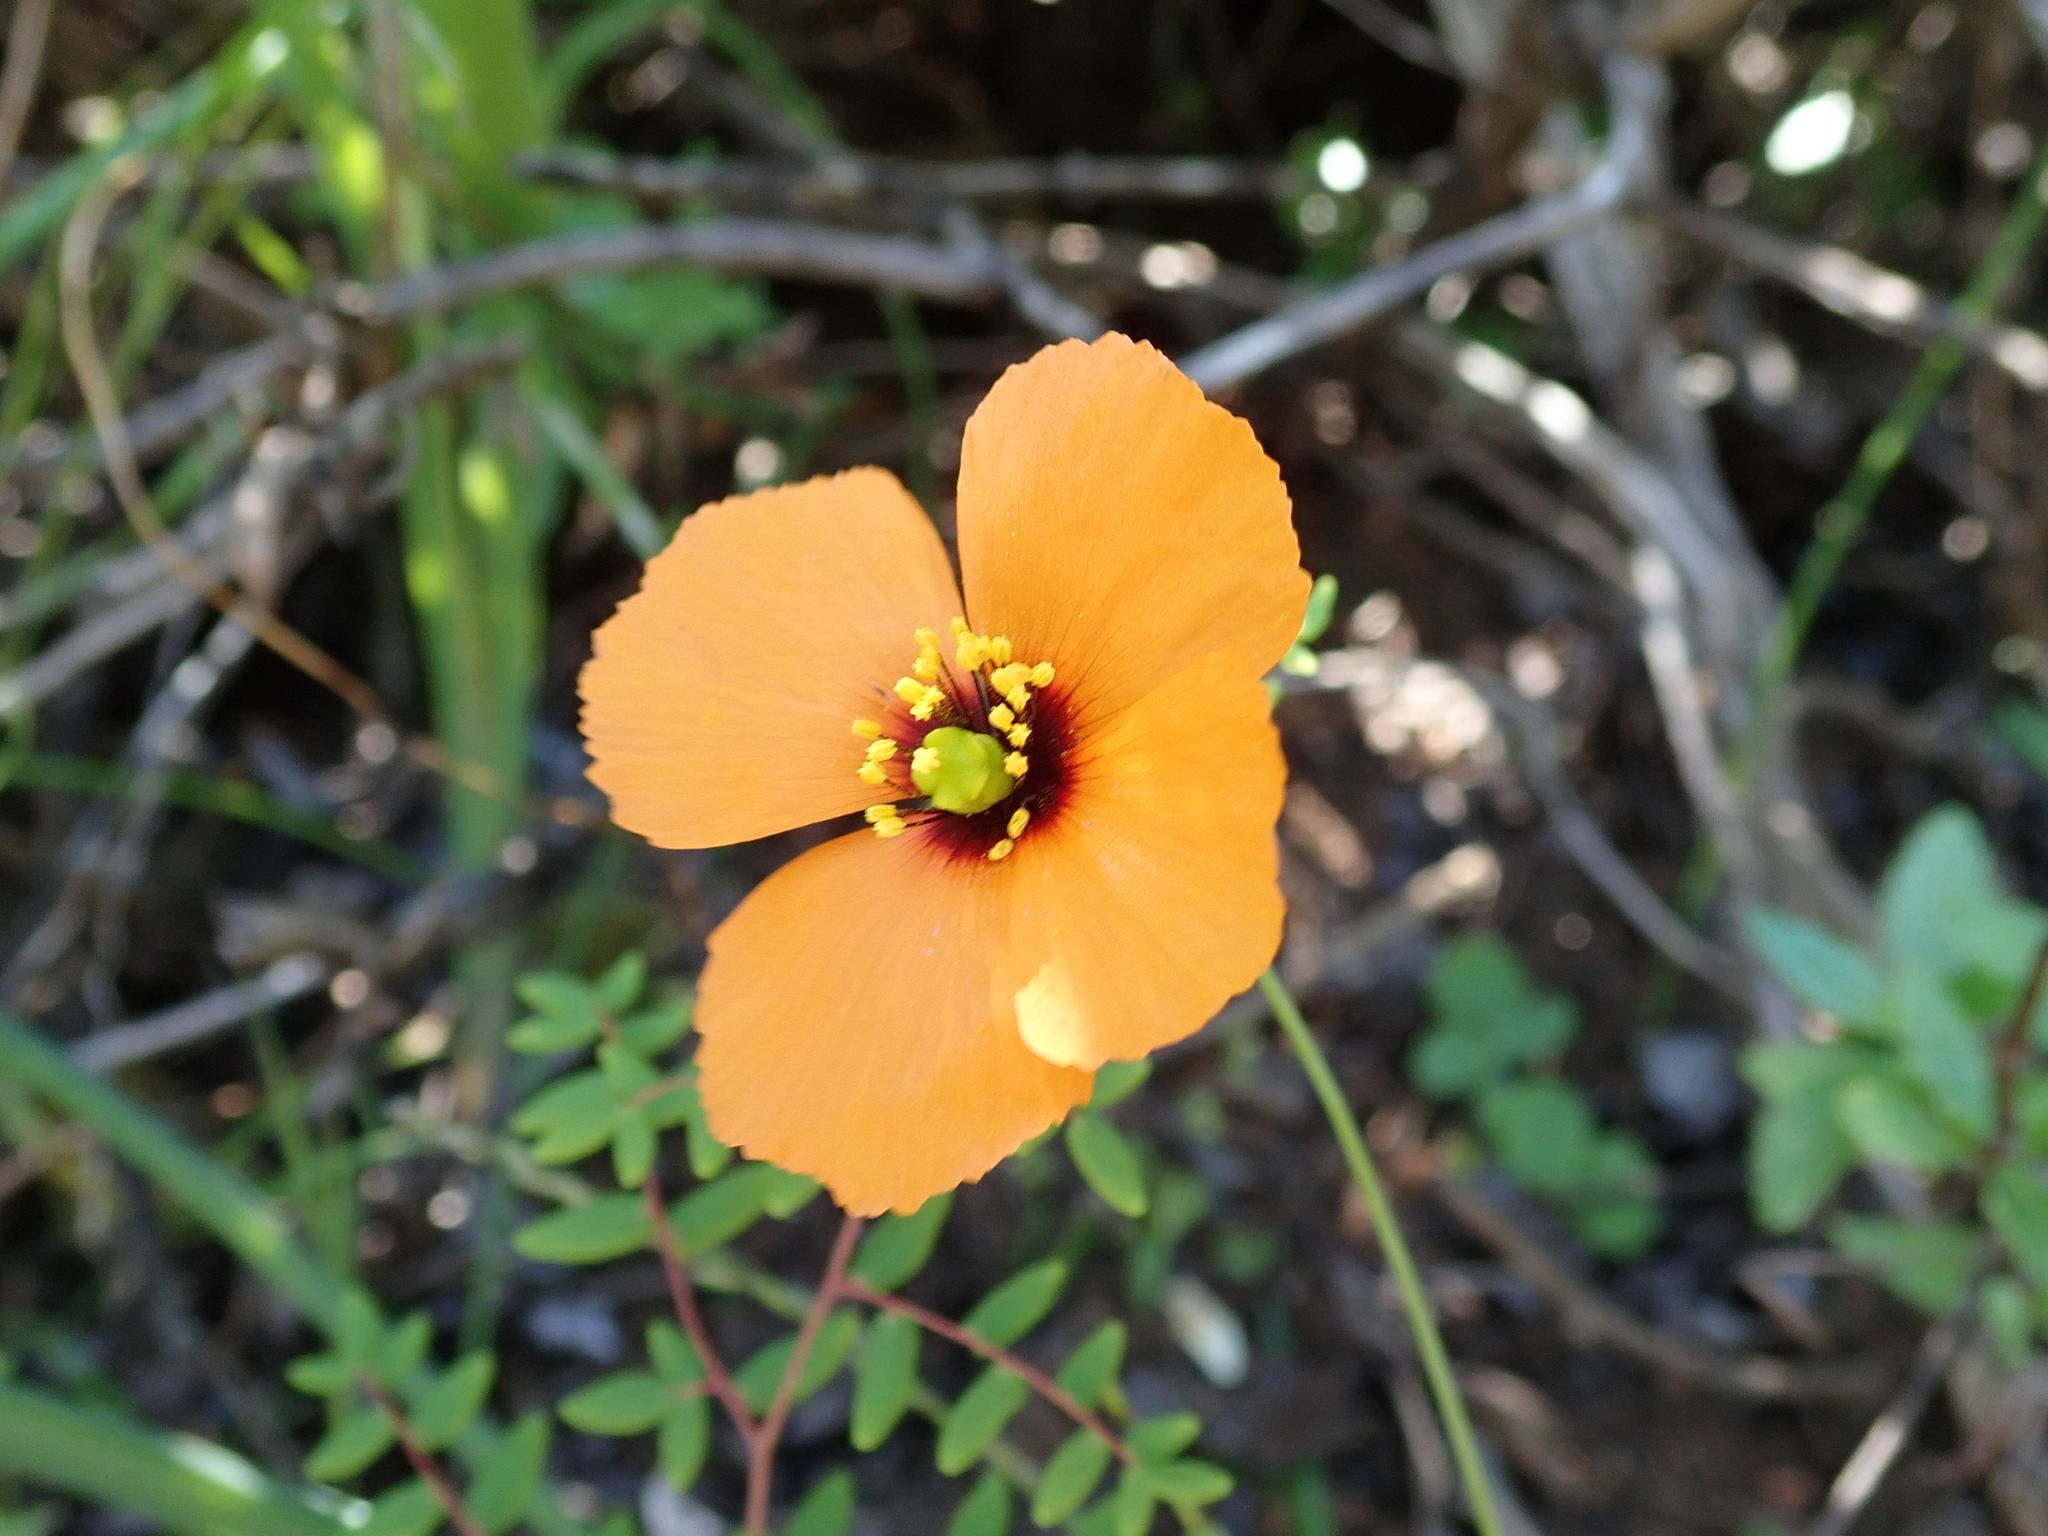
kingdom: Plantae
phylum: Tracheophyta
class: Magnoliopsida
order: Ranunculales
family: Papaveraceae
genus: Stylomecon
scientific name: Stylomecon heterophylla
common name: Flaming-poppy
